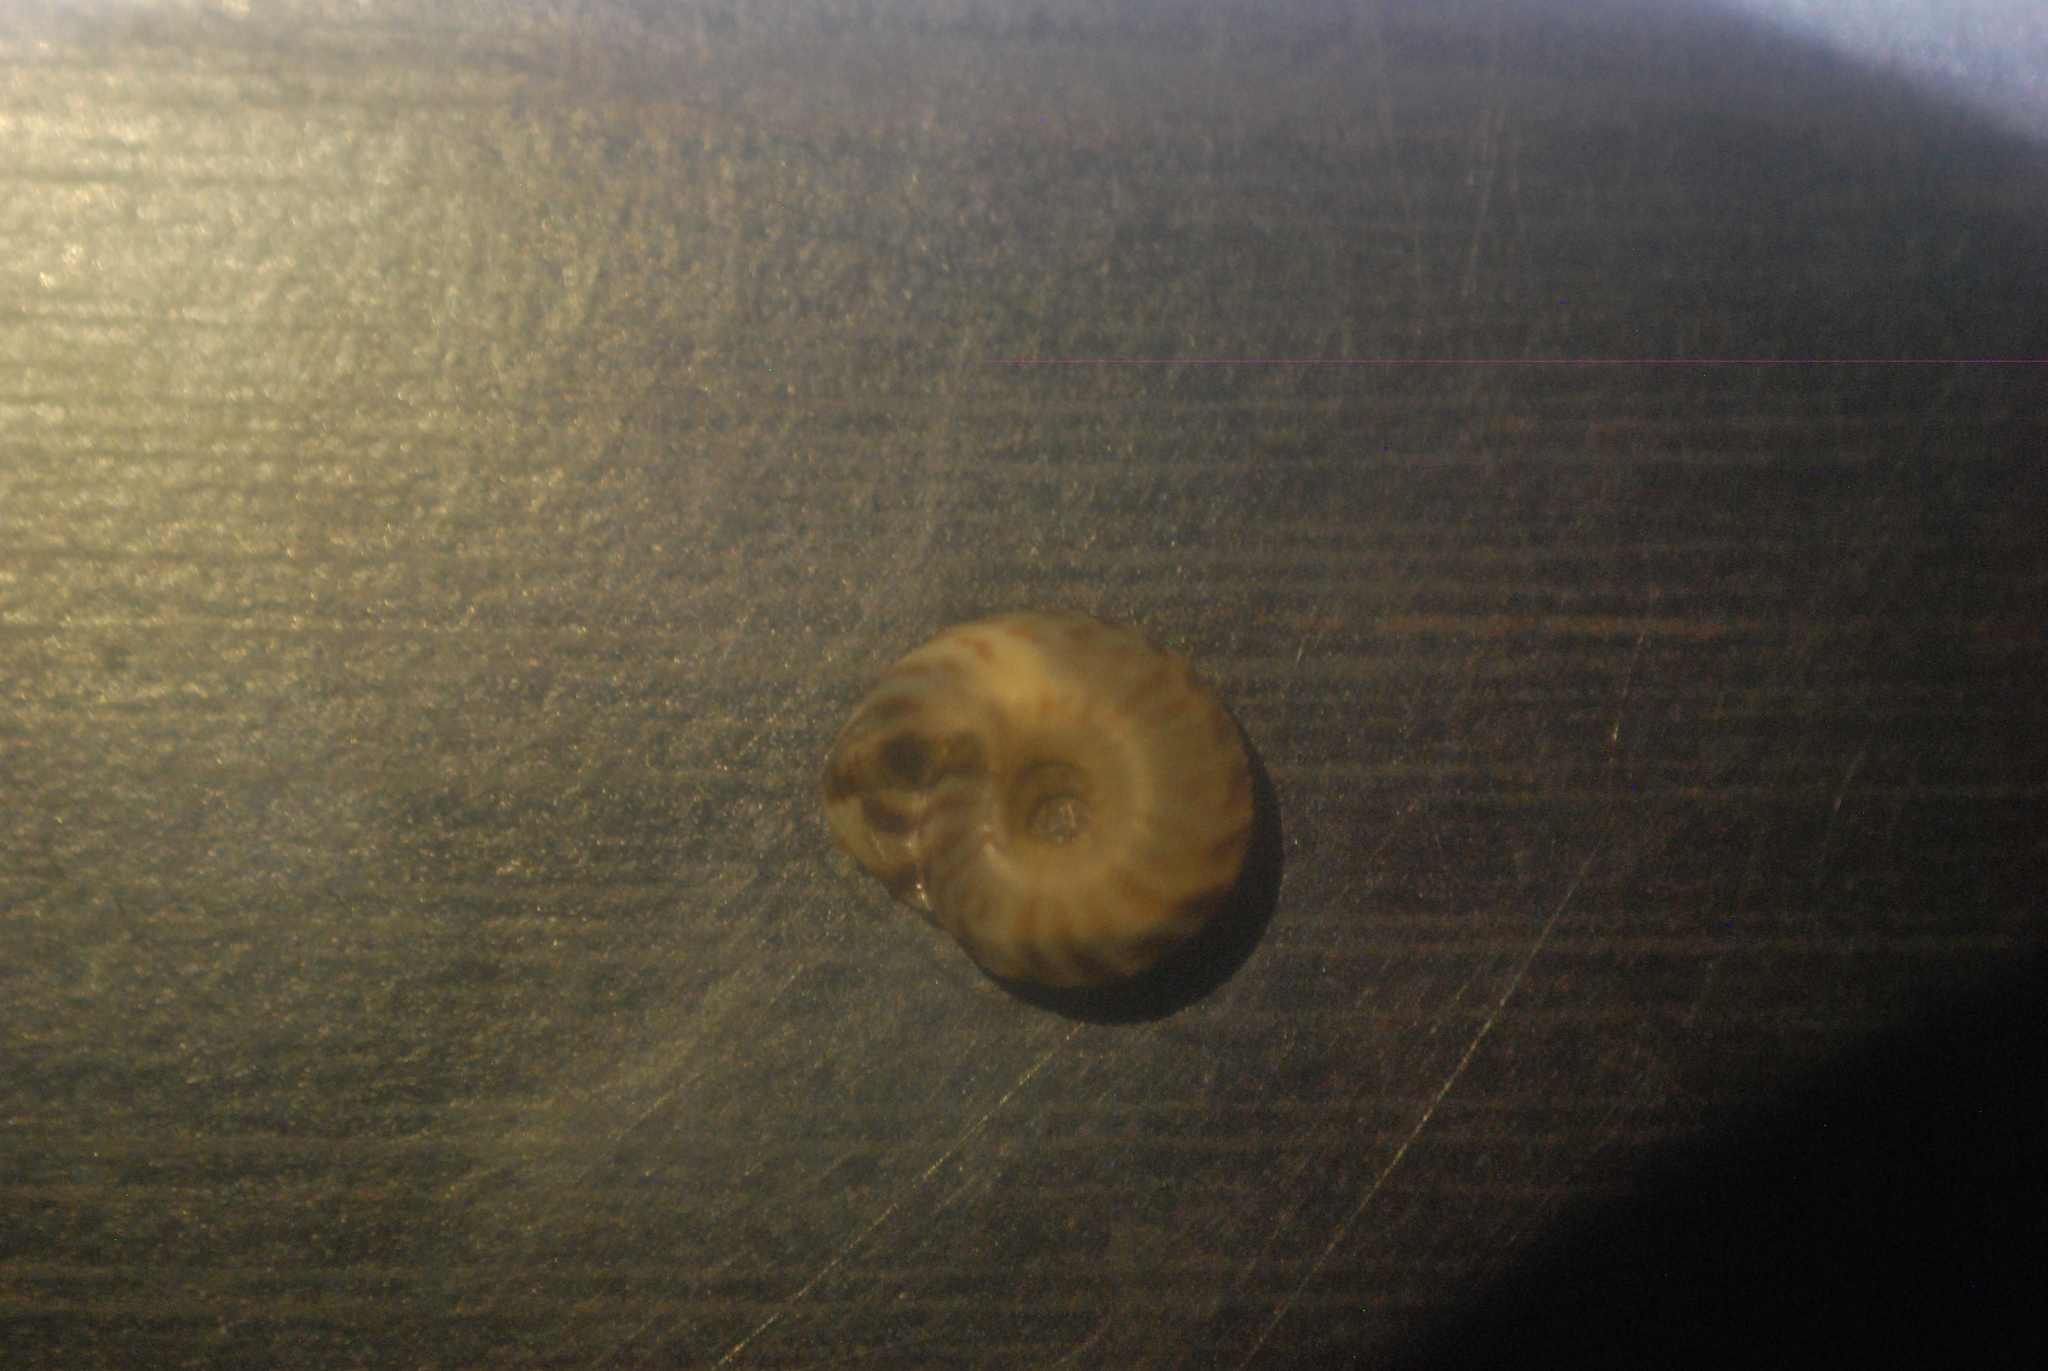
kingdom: Animalia
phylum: Mollusca
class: Gastropoda
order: Stylommatophora
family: Discidae
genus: Anguispira
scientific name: Anguispira alternata
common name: Flamed tigersnail
